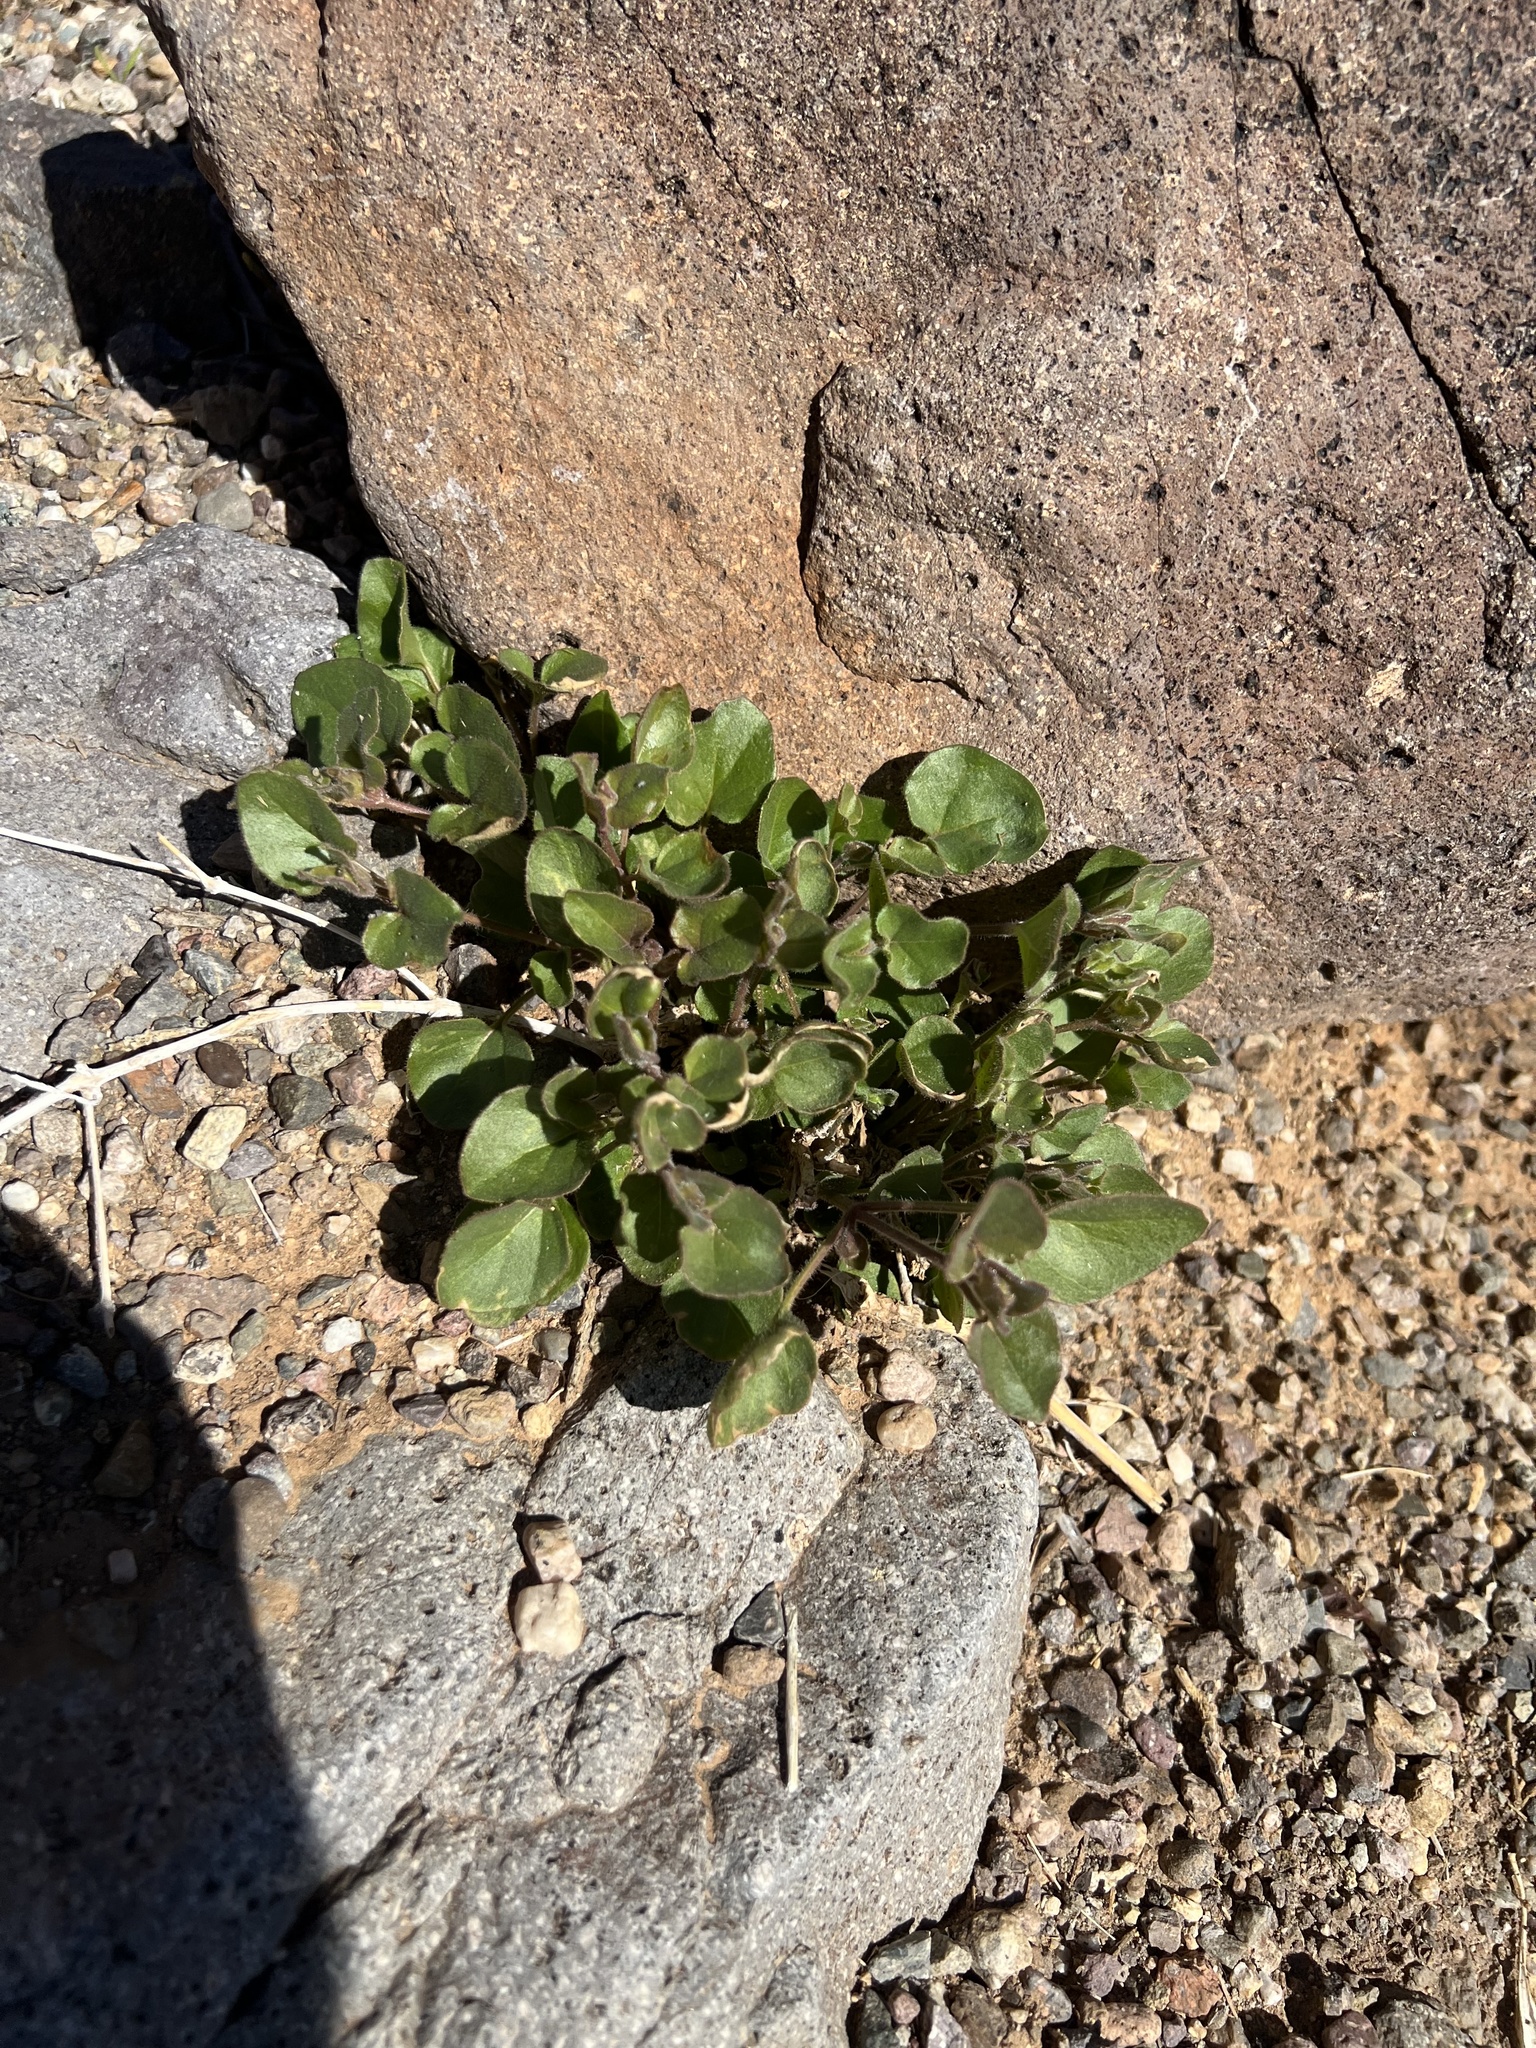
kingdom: Plantae
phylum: Tracheophyta
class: Magnoliopsida
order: Caryophyllales
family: Nyctaginaceae
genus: Mirabilis
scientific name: Mirabilis laevis
